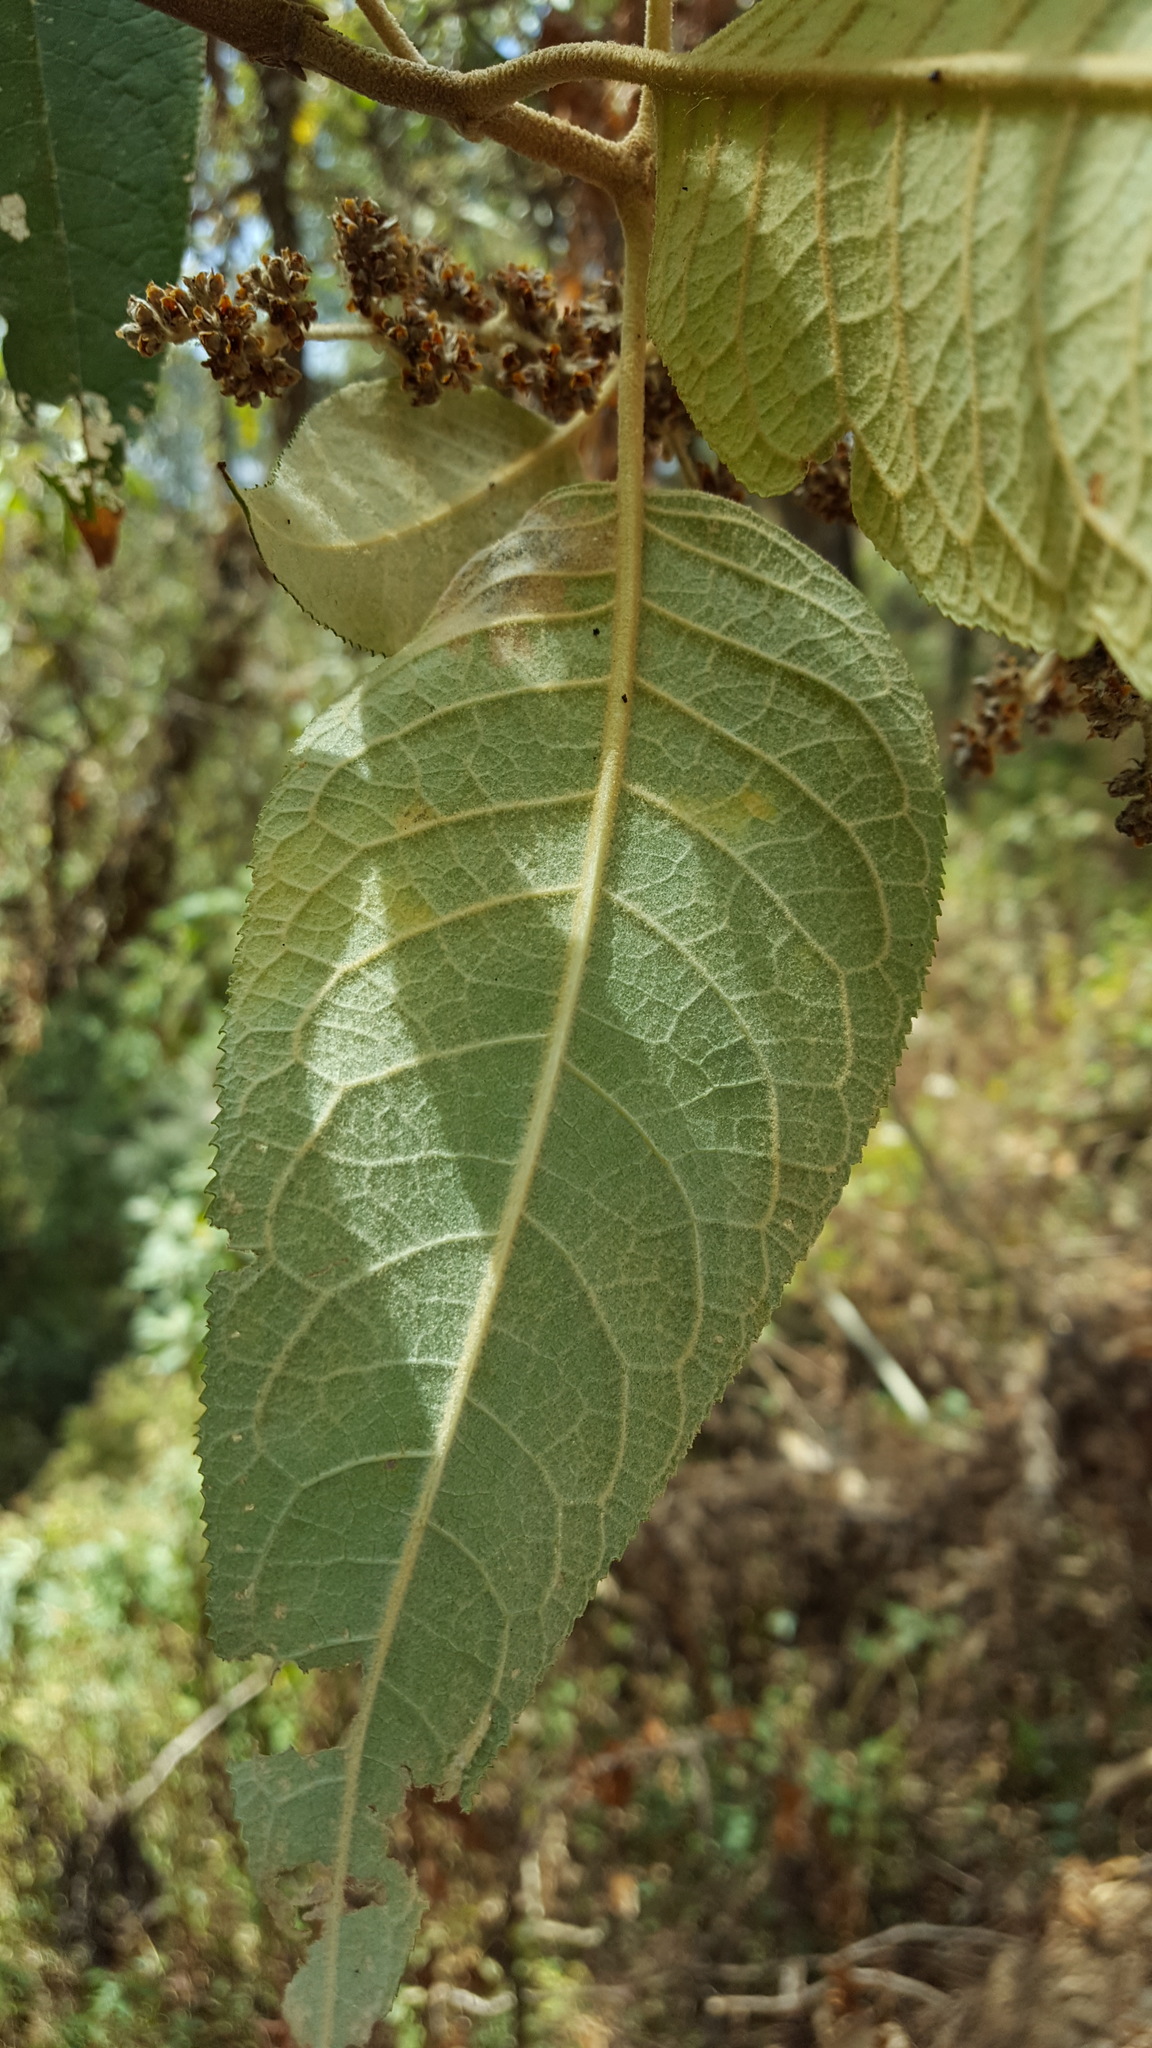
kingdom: Plantae
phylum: Tracheophyta
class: Magnoliopsida
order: Lamiales
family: Scrophulariaceae
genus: Buddleja
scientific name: Buddleja cordata
